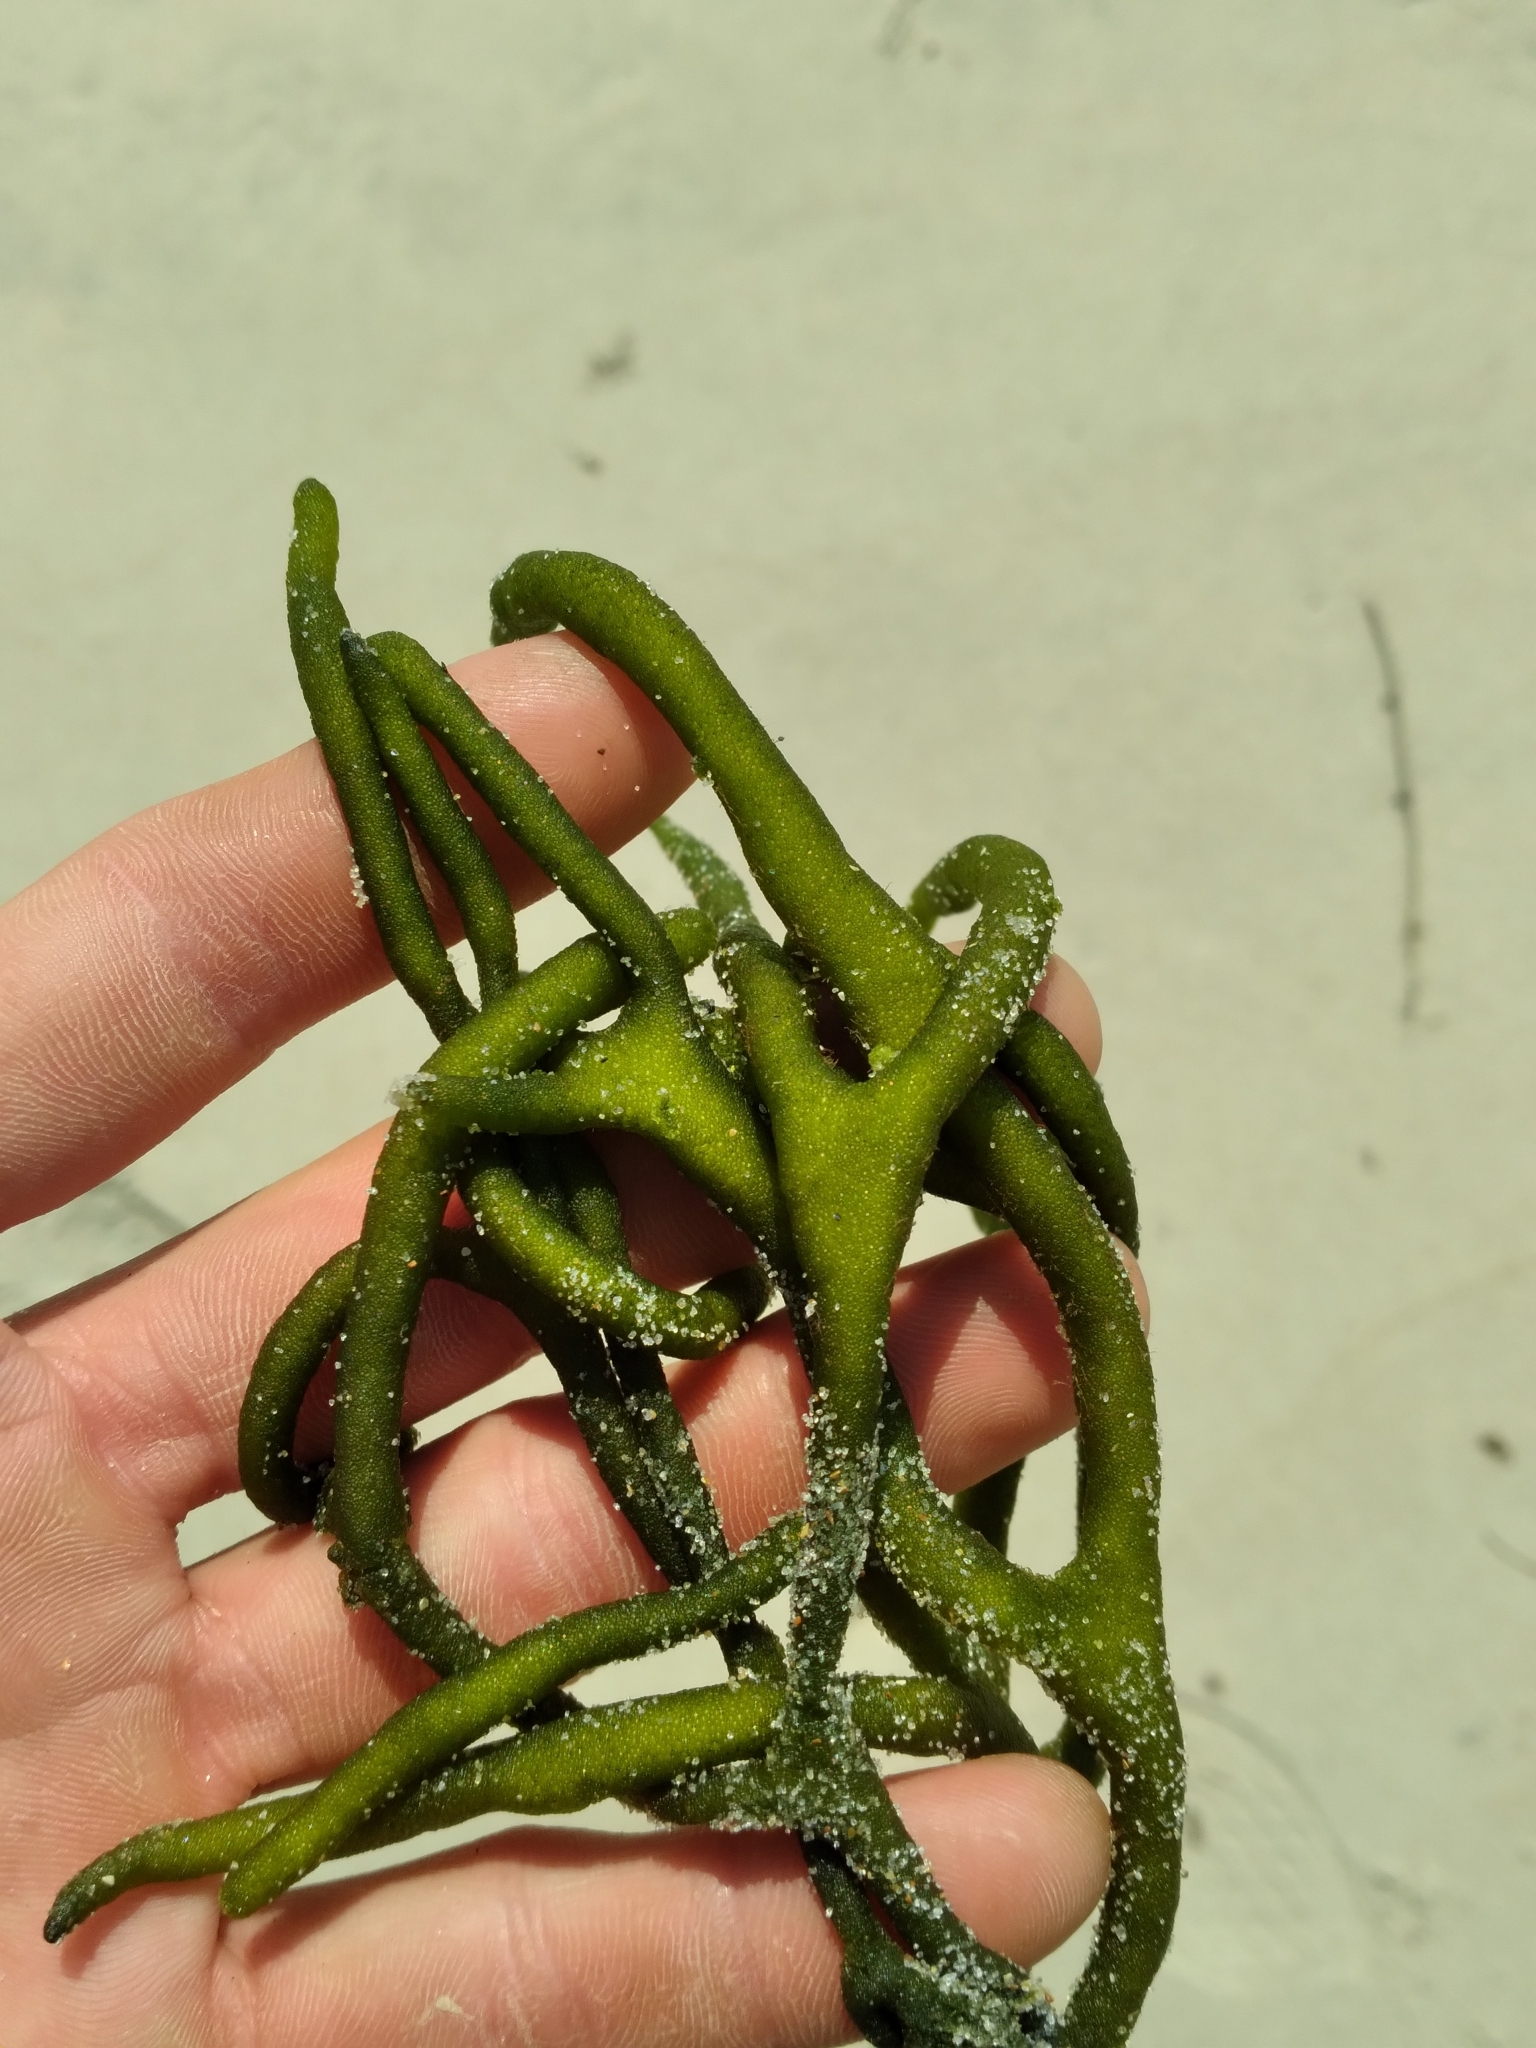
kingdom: Plantae
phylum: Chlorophyta
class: Ulvophyceae
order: Bryopsidales
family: Codiaceae
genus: Codium
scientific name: Codium fragile
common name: Dead man's fingers
